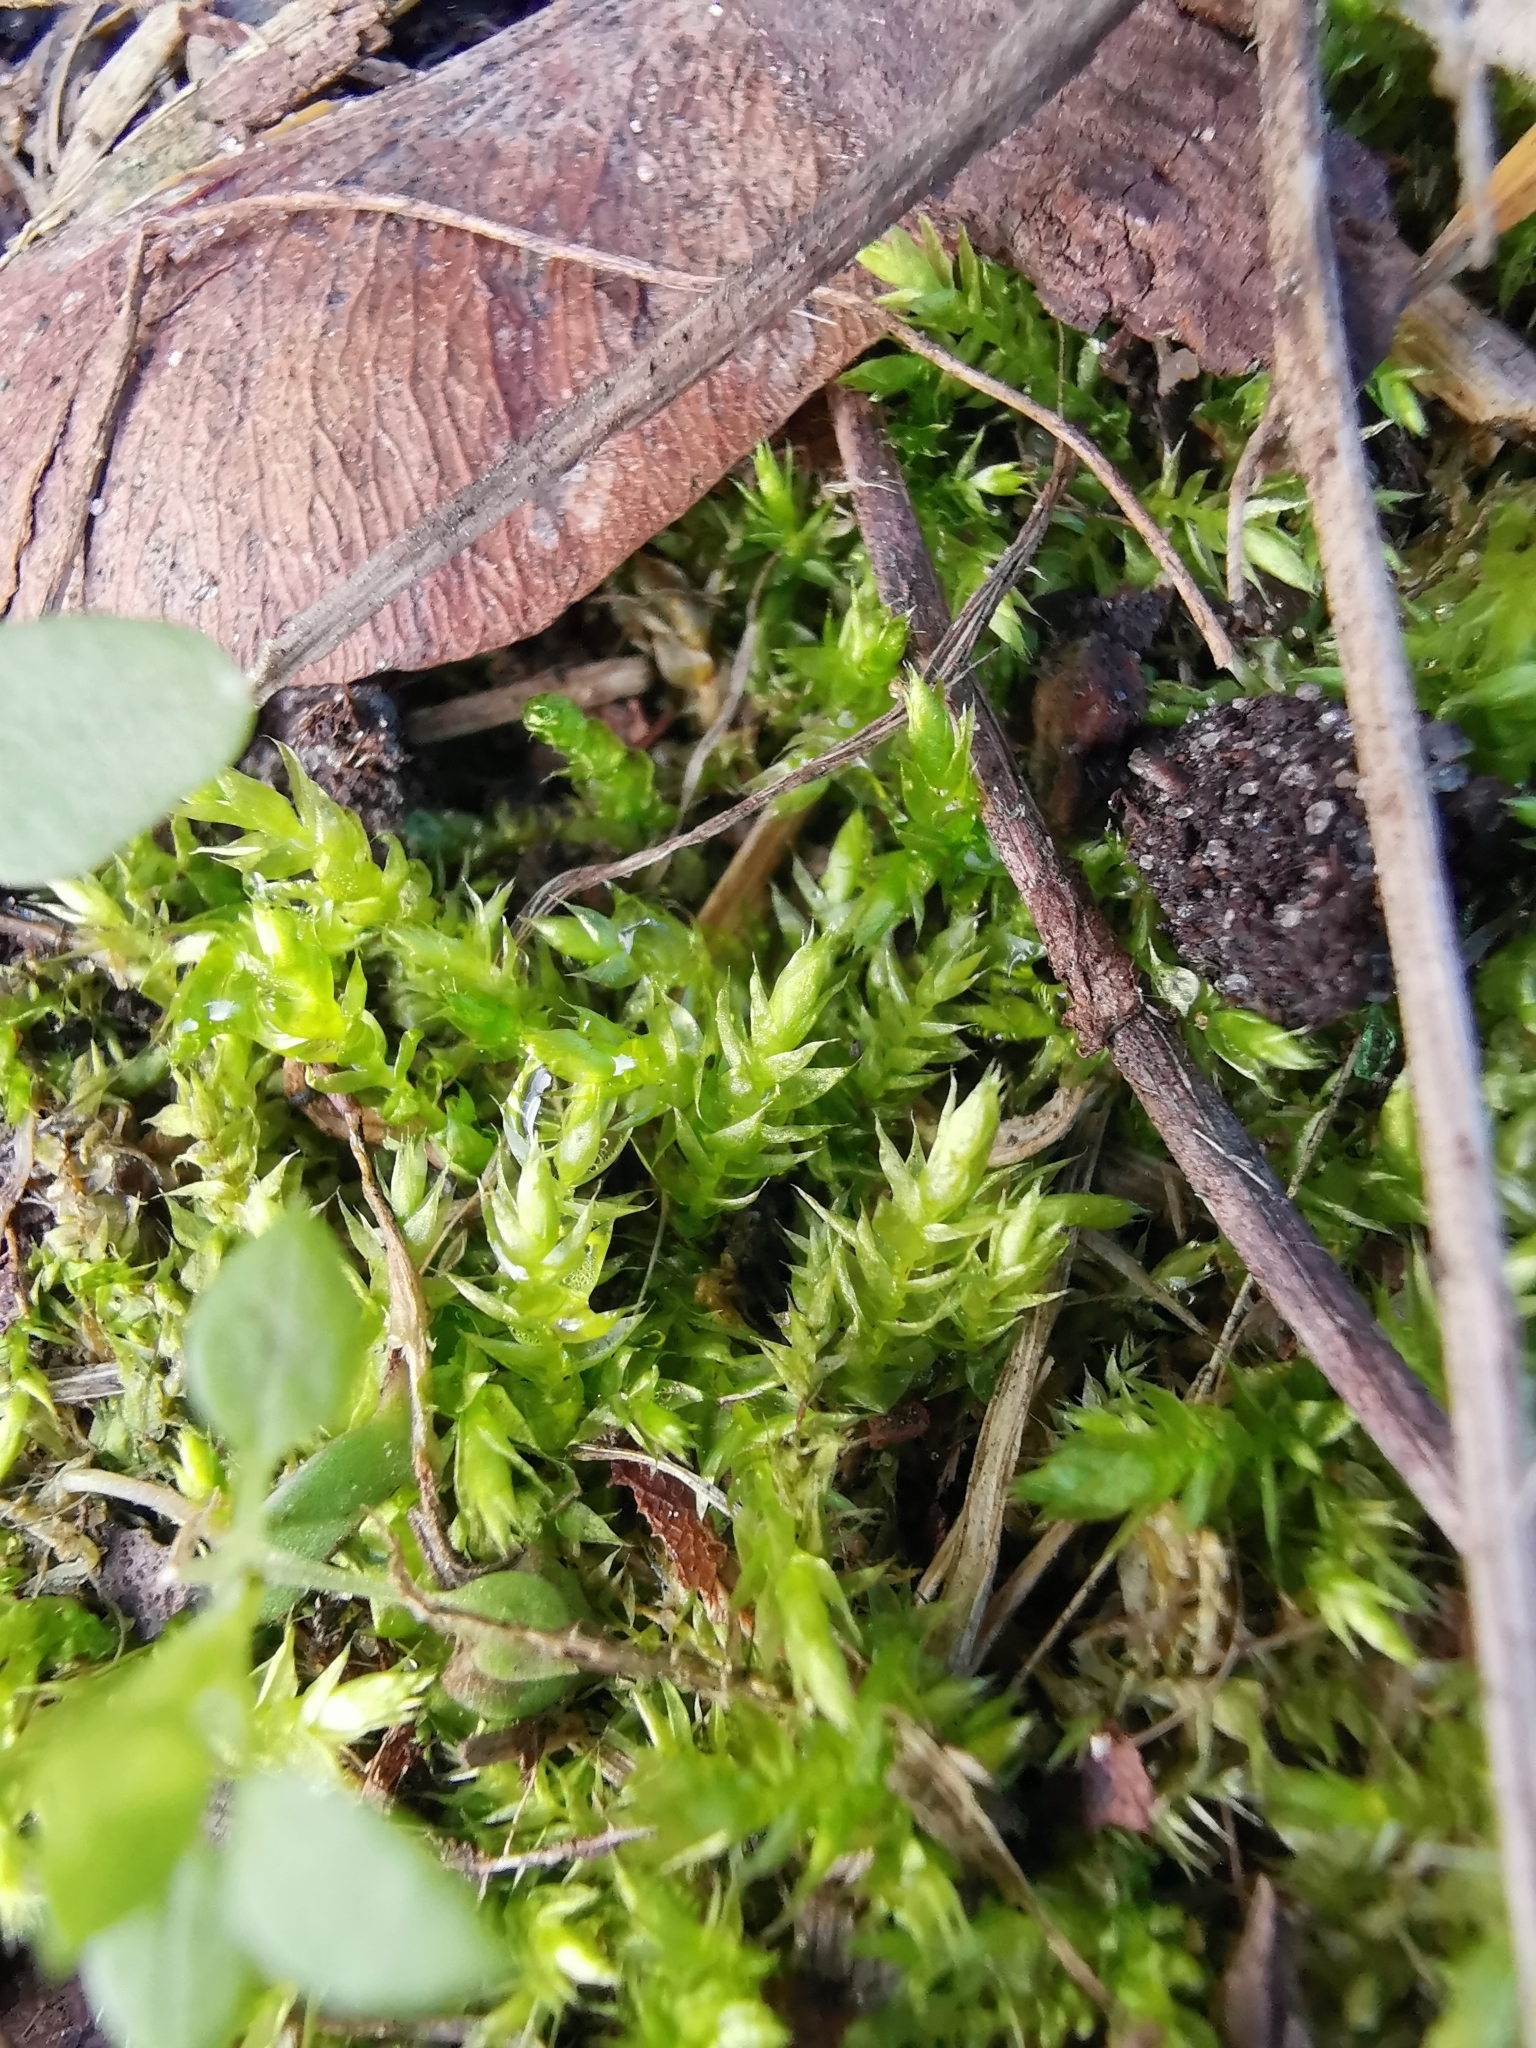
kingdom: Plantae
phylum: Bryophyta
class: Bryopsida
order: Hypnales
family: Brachytheciaceae
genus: Brachythecium
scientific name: Brachythecium rutabulum
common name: Rough-stalked feather-moss
